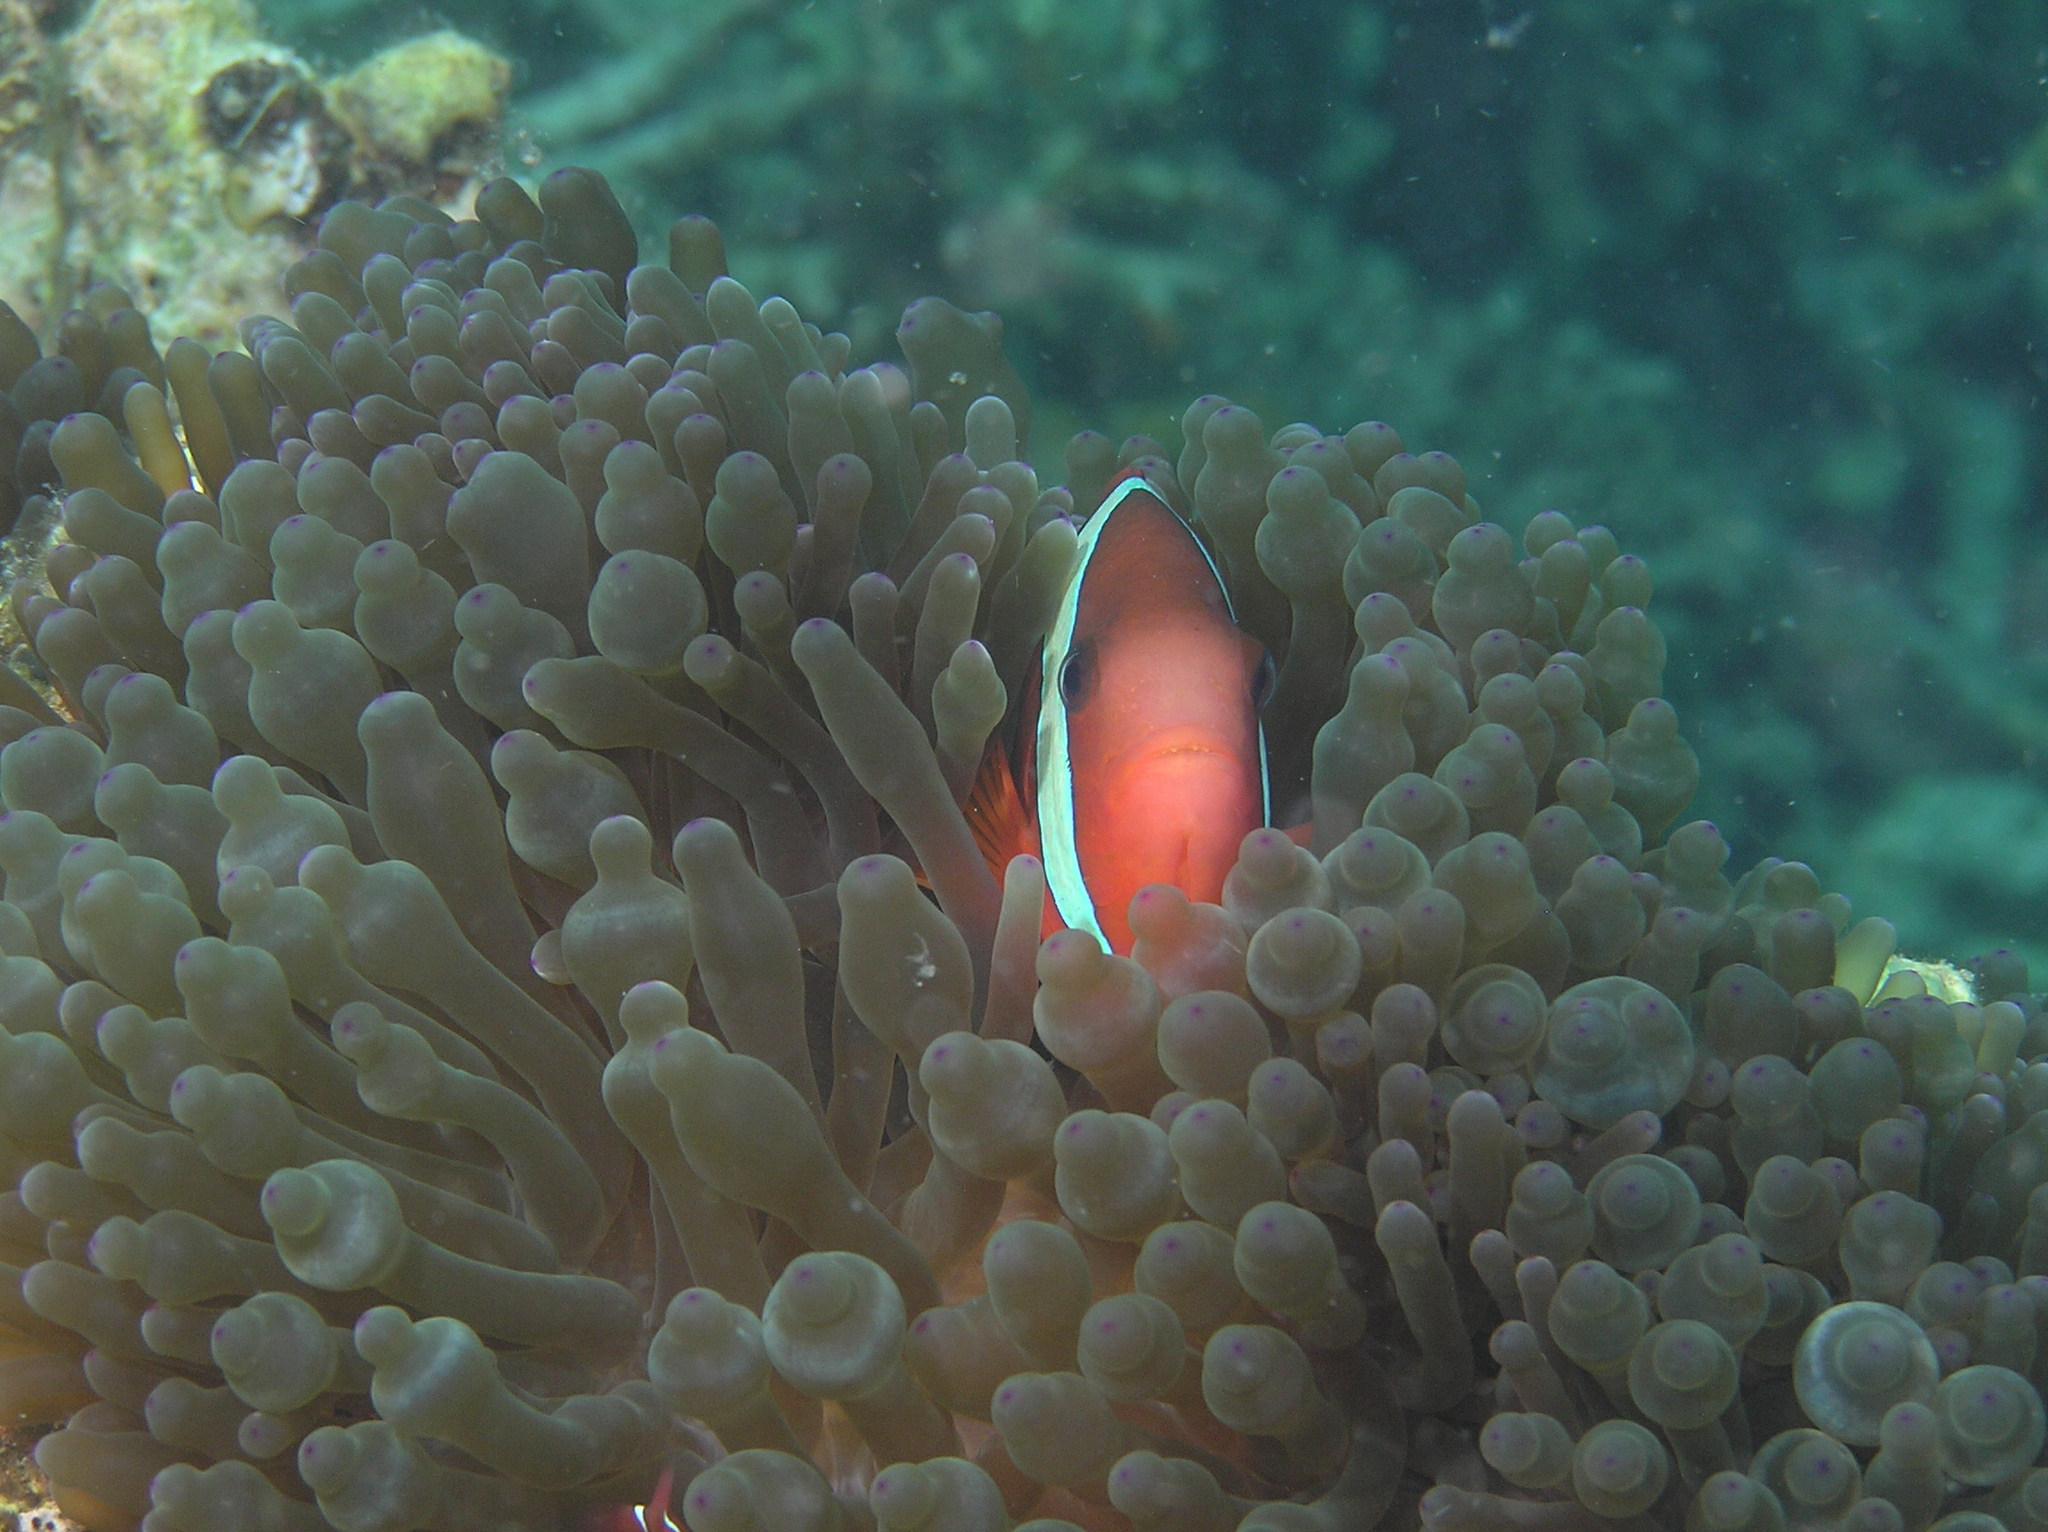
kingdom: Animalia
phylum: Chordata
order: Perciformes
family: Pomacentridae
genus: Amphiprion
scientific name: Amphiprion melanopus
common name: Black anemonefish
